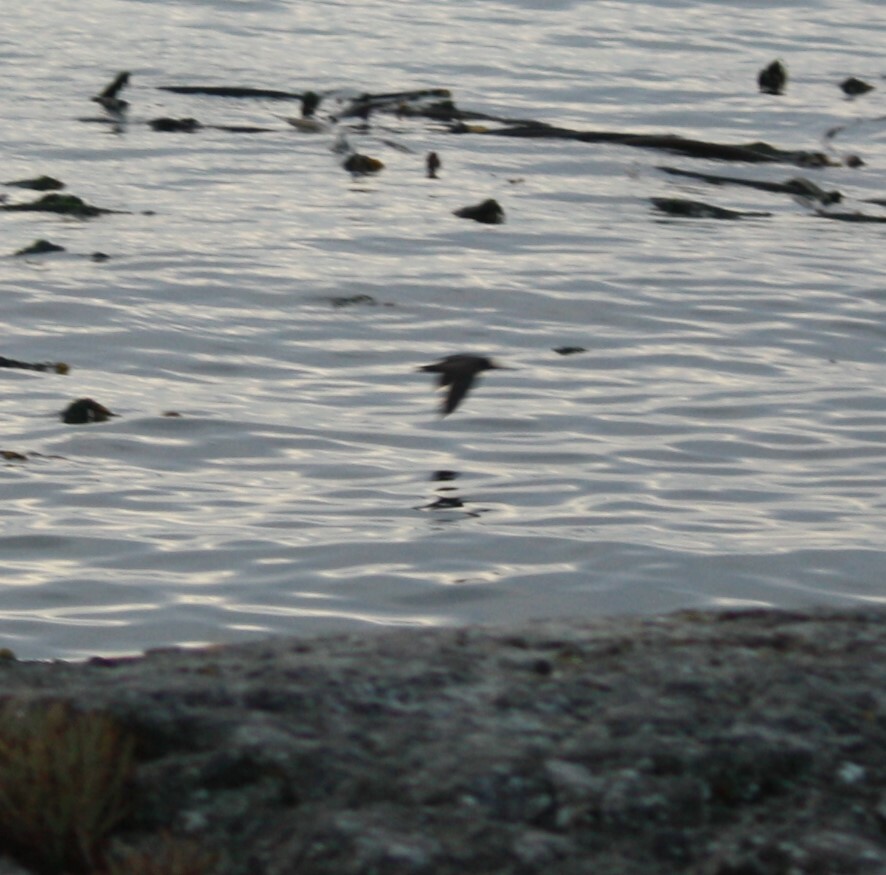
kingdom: Animalia
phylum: Chordata
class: Aves
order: Charadriiformes
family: Haematopodidae
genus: Haematopus
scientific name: Haematopus bachmani
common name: Black oystercatcher
